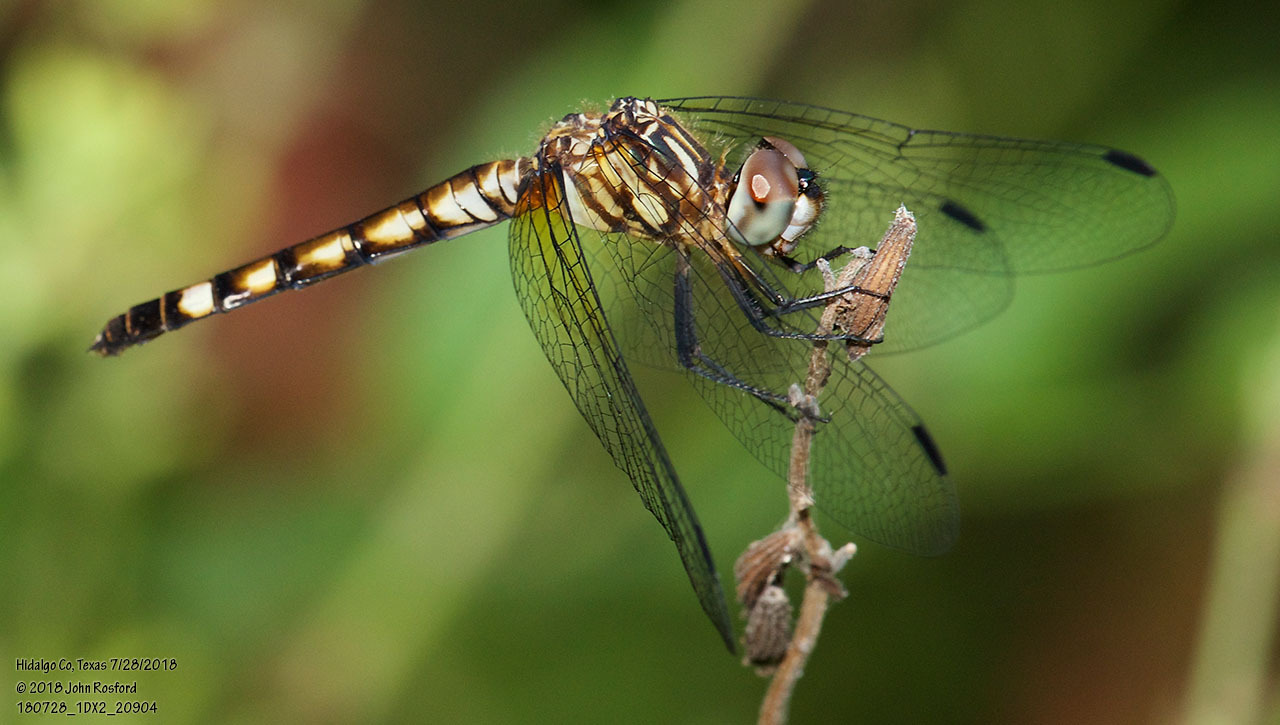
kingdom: Animalia
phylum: Arthropoda
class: Insecta
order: Odonata
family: Libellulidae
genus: Micrathyria
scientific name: Micrathyria hagenii
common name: Thornbush dasher
